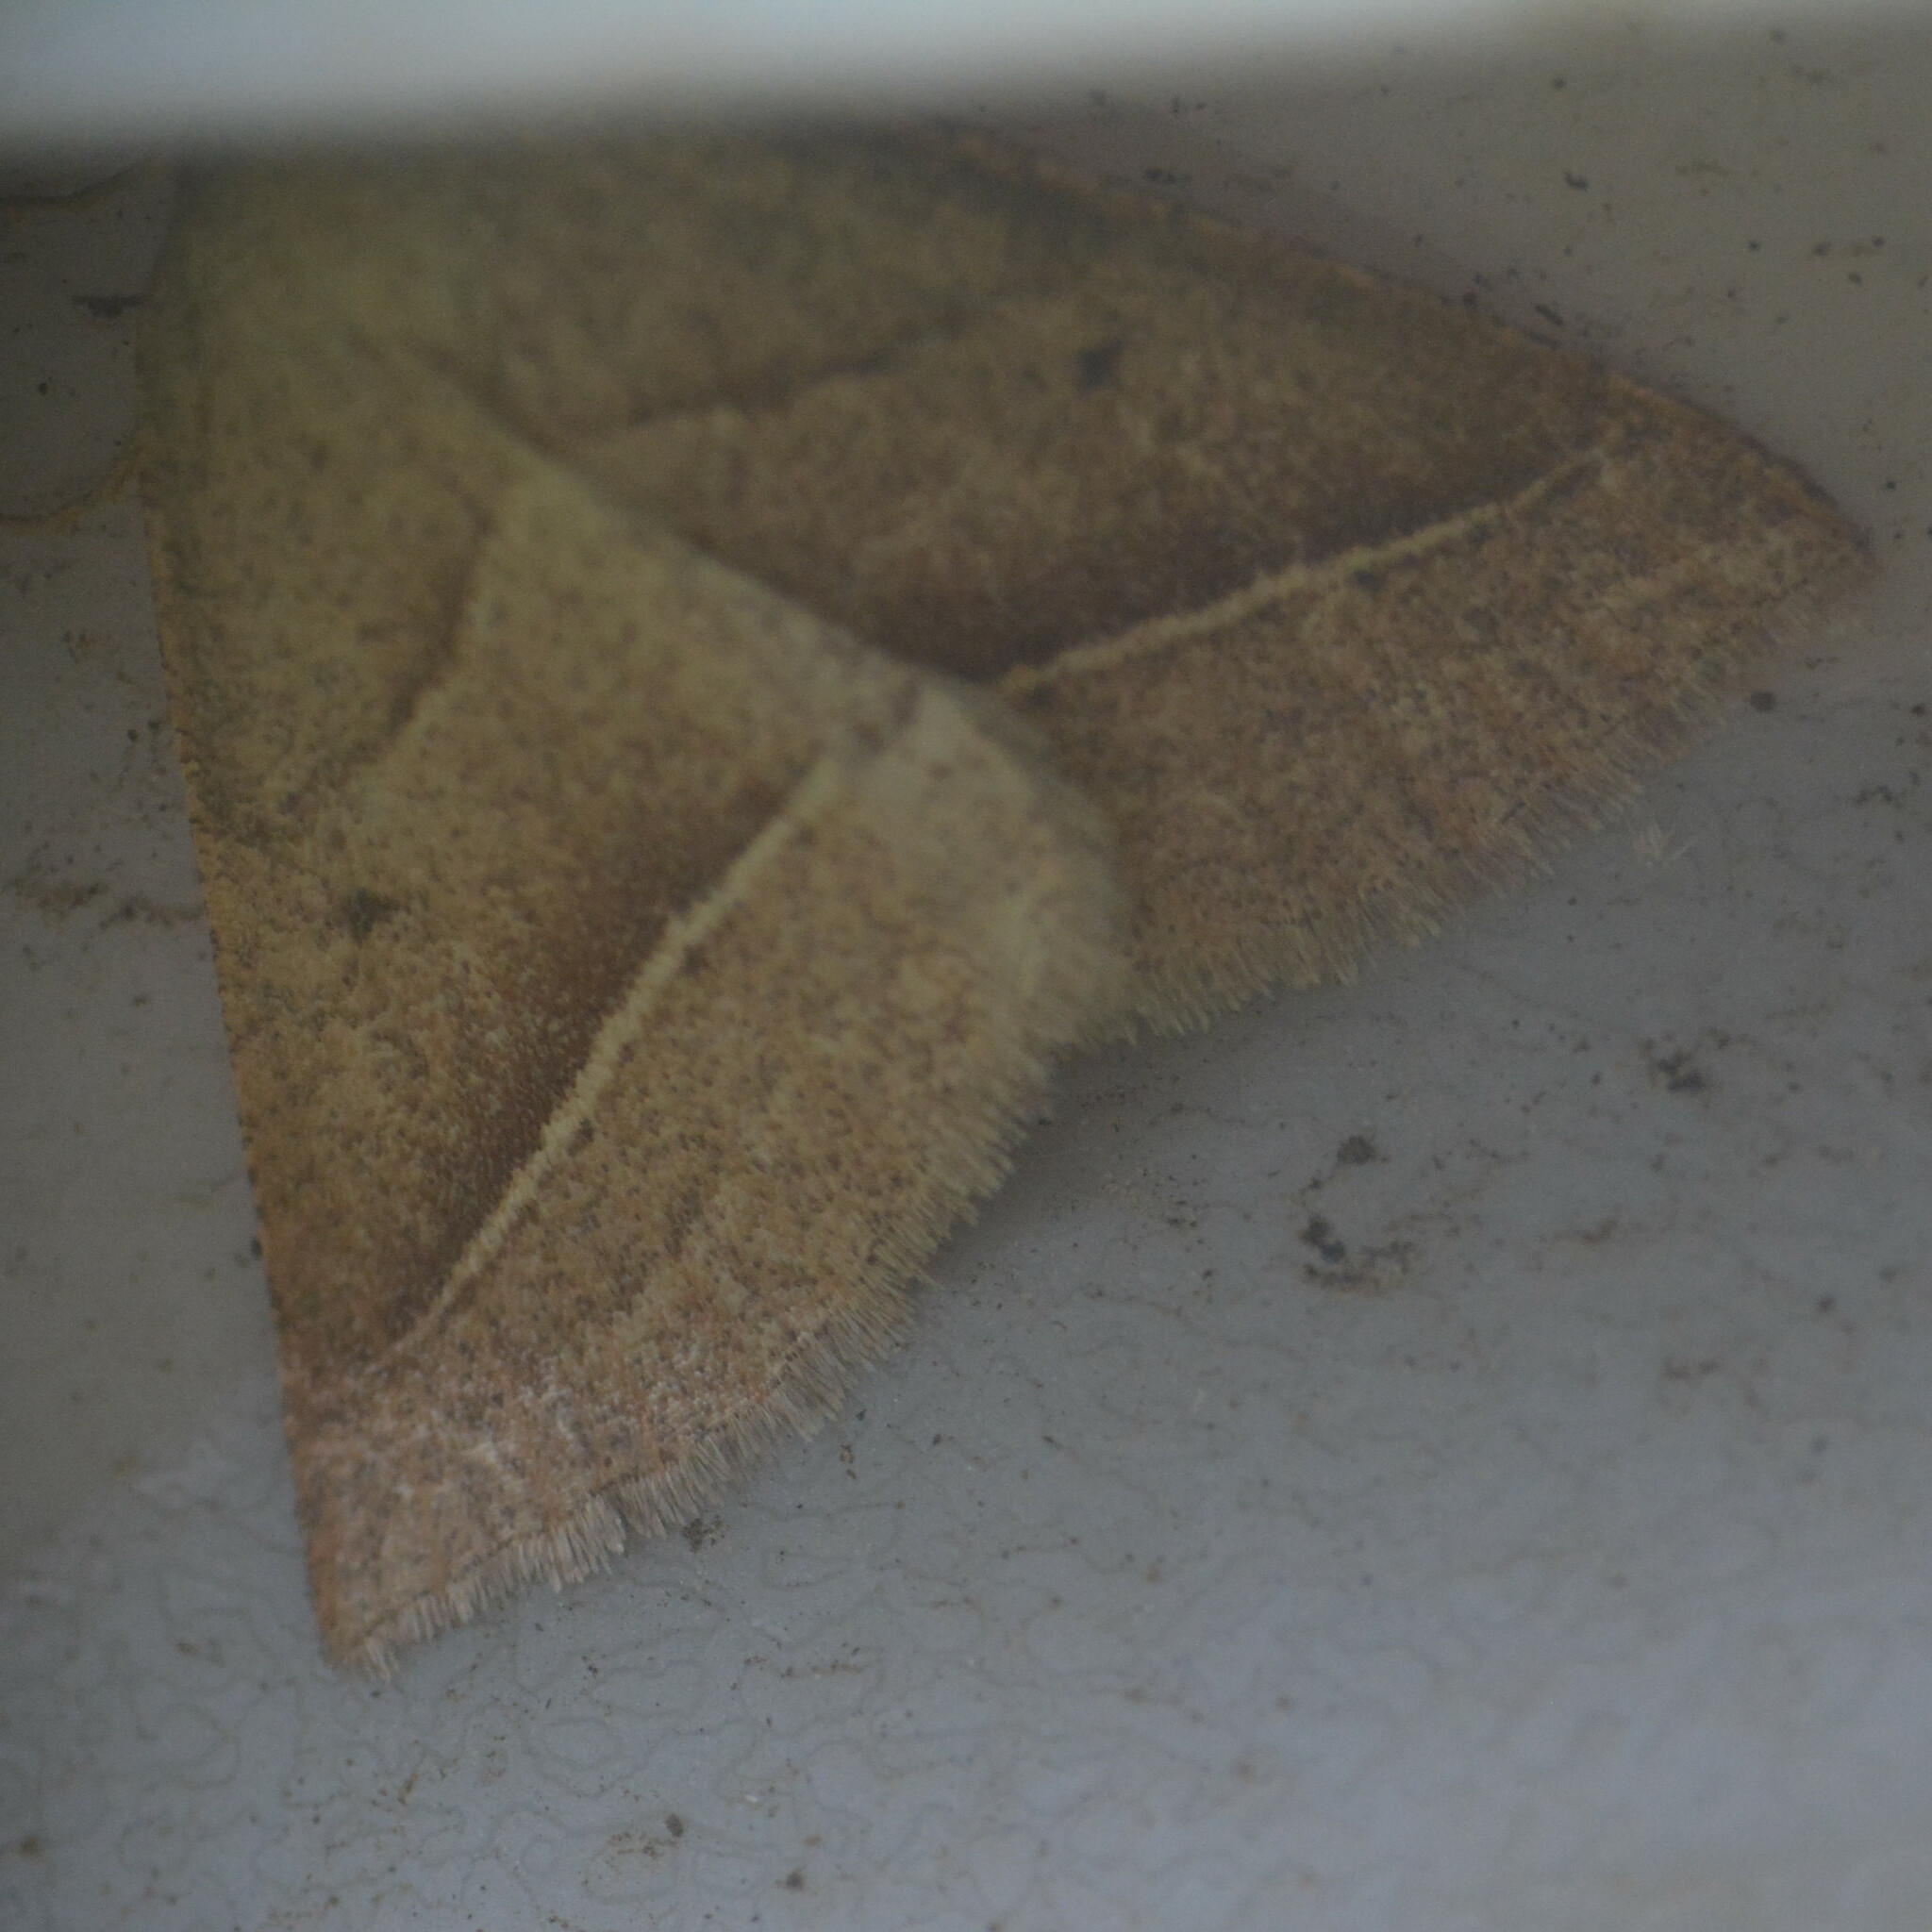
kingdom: Animalia
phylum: Arthropoda
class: Insecta
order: Lepidoptera
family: Pterophoridae
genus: Pterophorus
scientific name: Pterophorus Petrophora chlorosata
